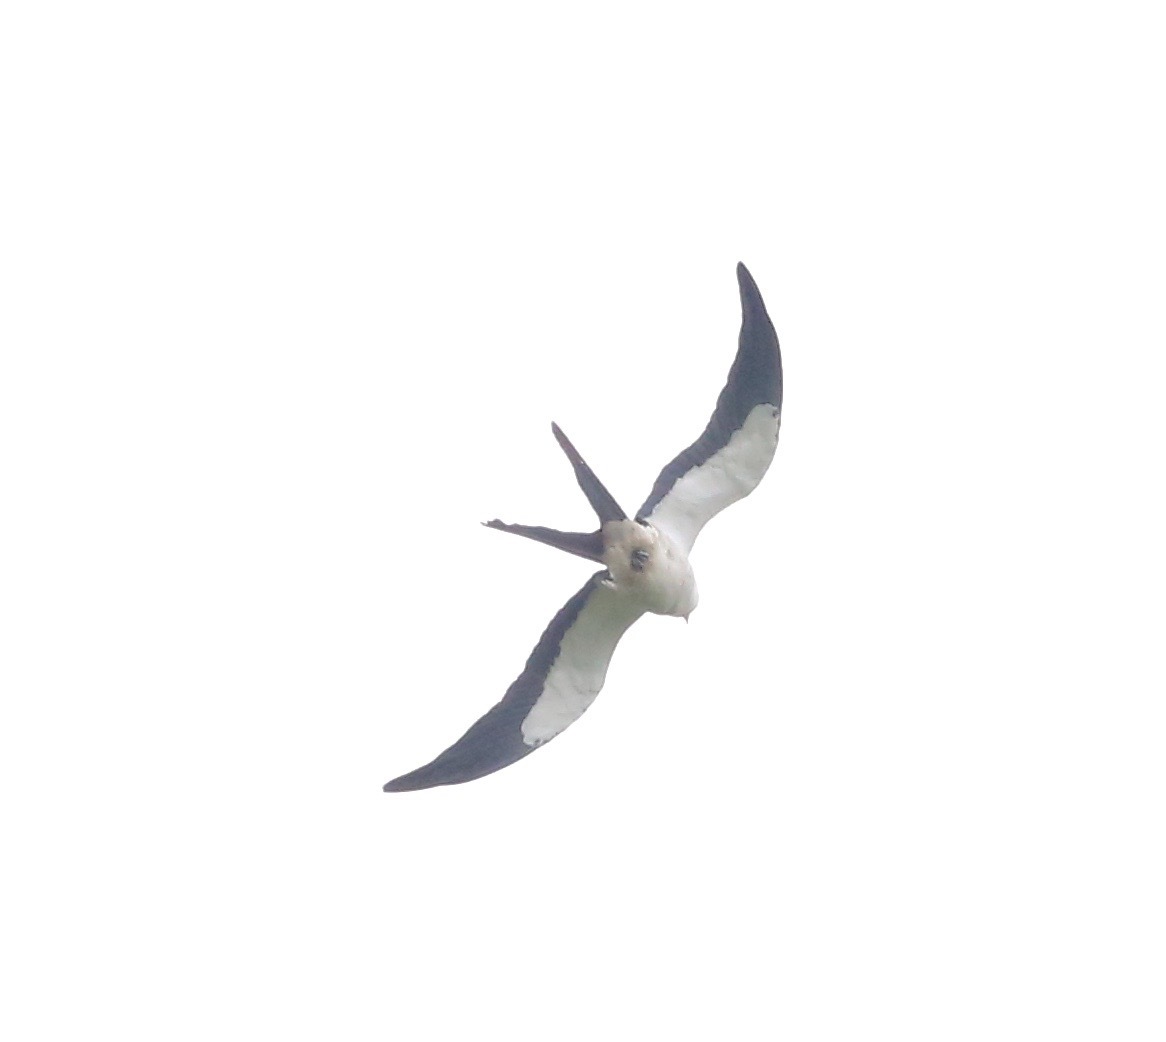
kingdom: Animalia
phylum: Chordata
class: Aves
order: Accipitriformes
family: Accipitridae
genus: Elanoides
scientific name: Elanoides forficatus
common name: Swallow-tailed kite
